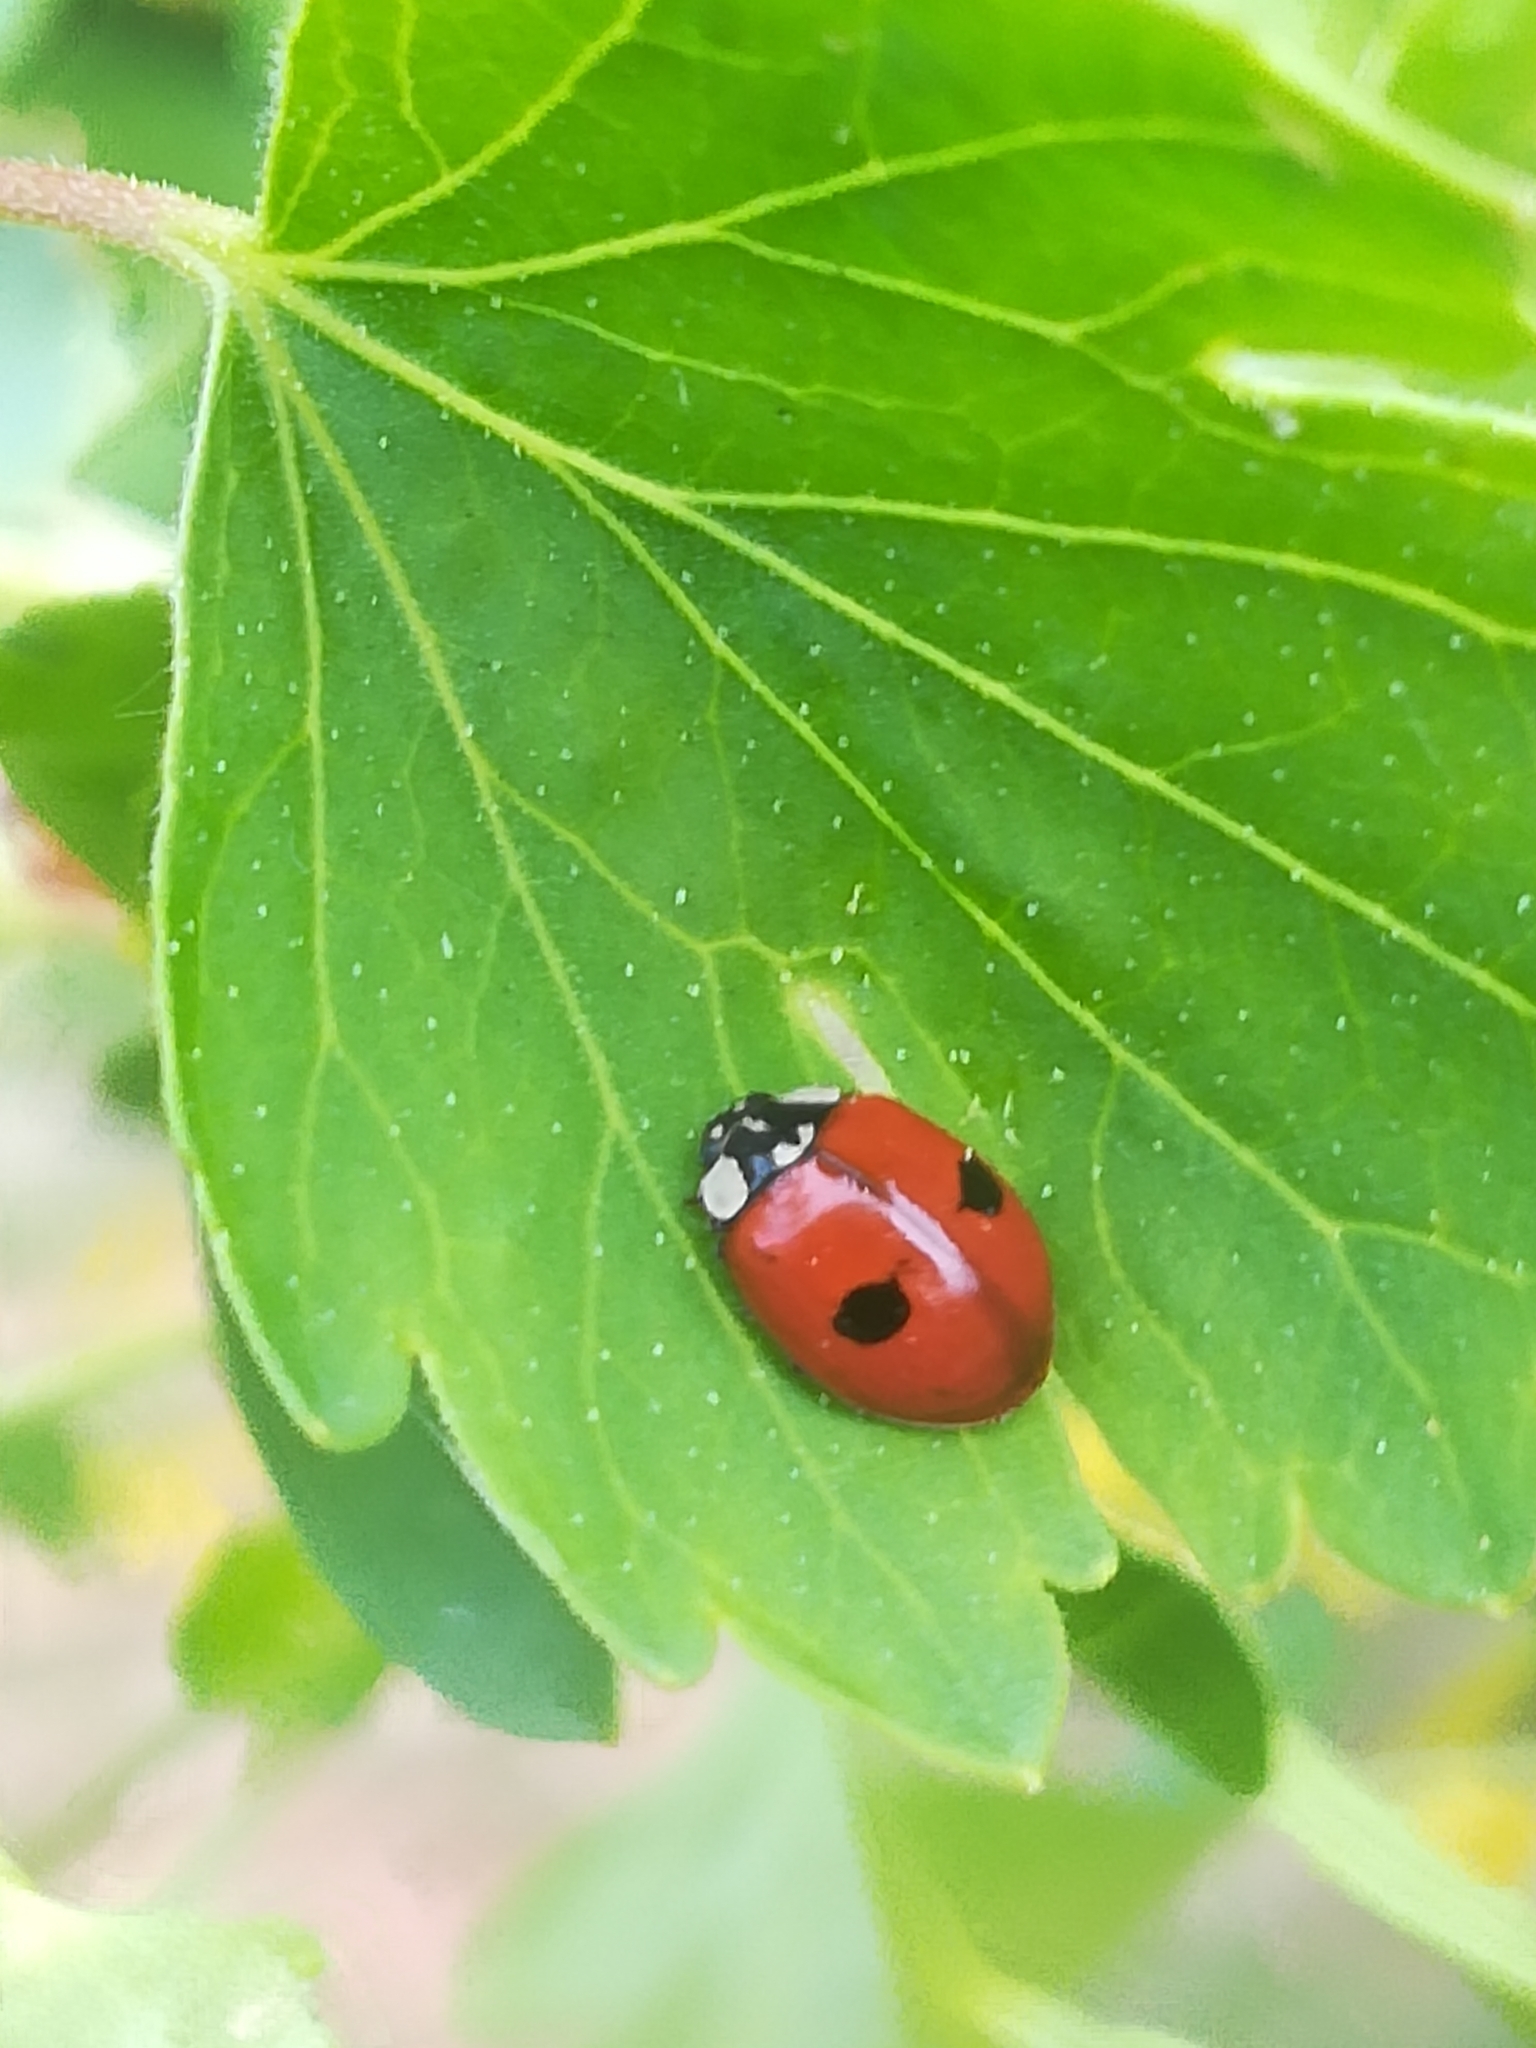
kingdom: Animalia
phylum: Arthropoda
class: Insecta
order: Coleoptera
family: Coccinellidae
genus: Adalia
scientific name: Adalia bipunctata
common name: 2-spot ladybird
